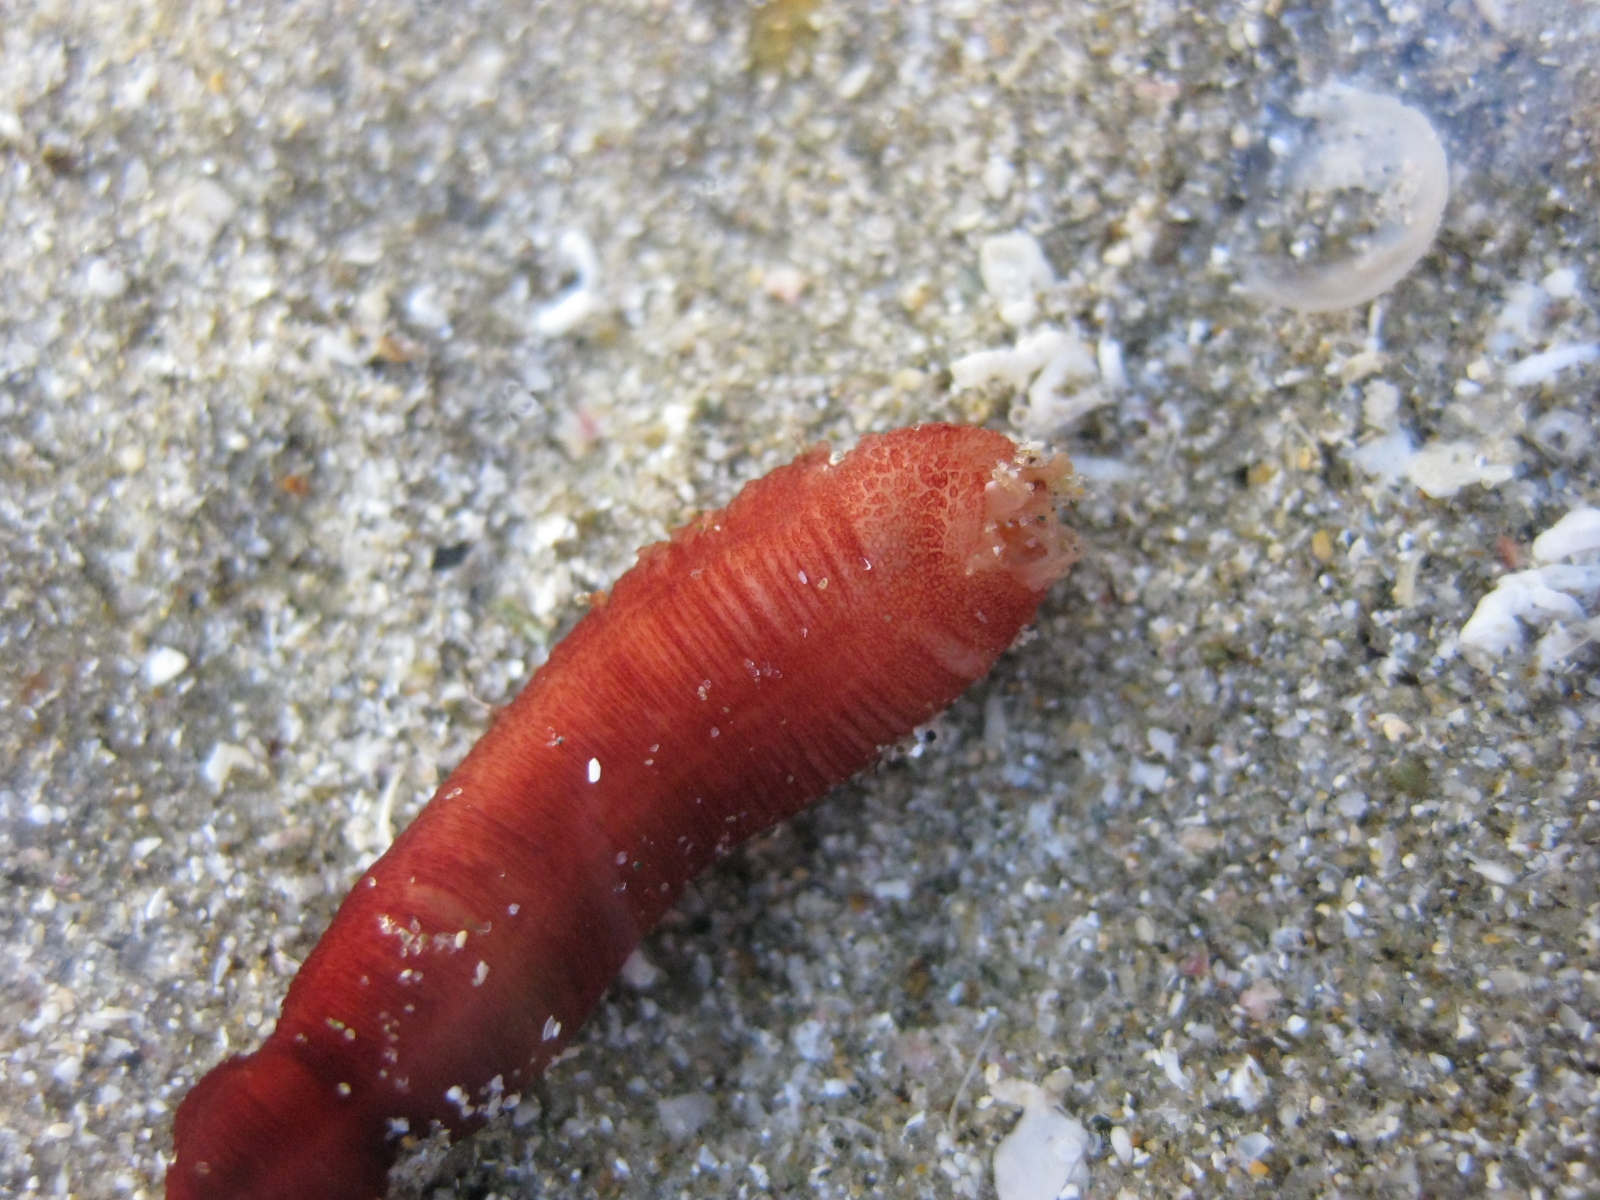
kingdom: Animalia
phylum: Echinodermata
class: Holothuroidea
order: Apodida
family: Chiridotidae
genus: Taeniogyrus
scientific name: Taeniogyrus dunedinensis
